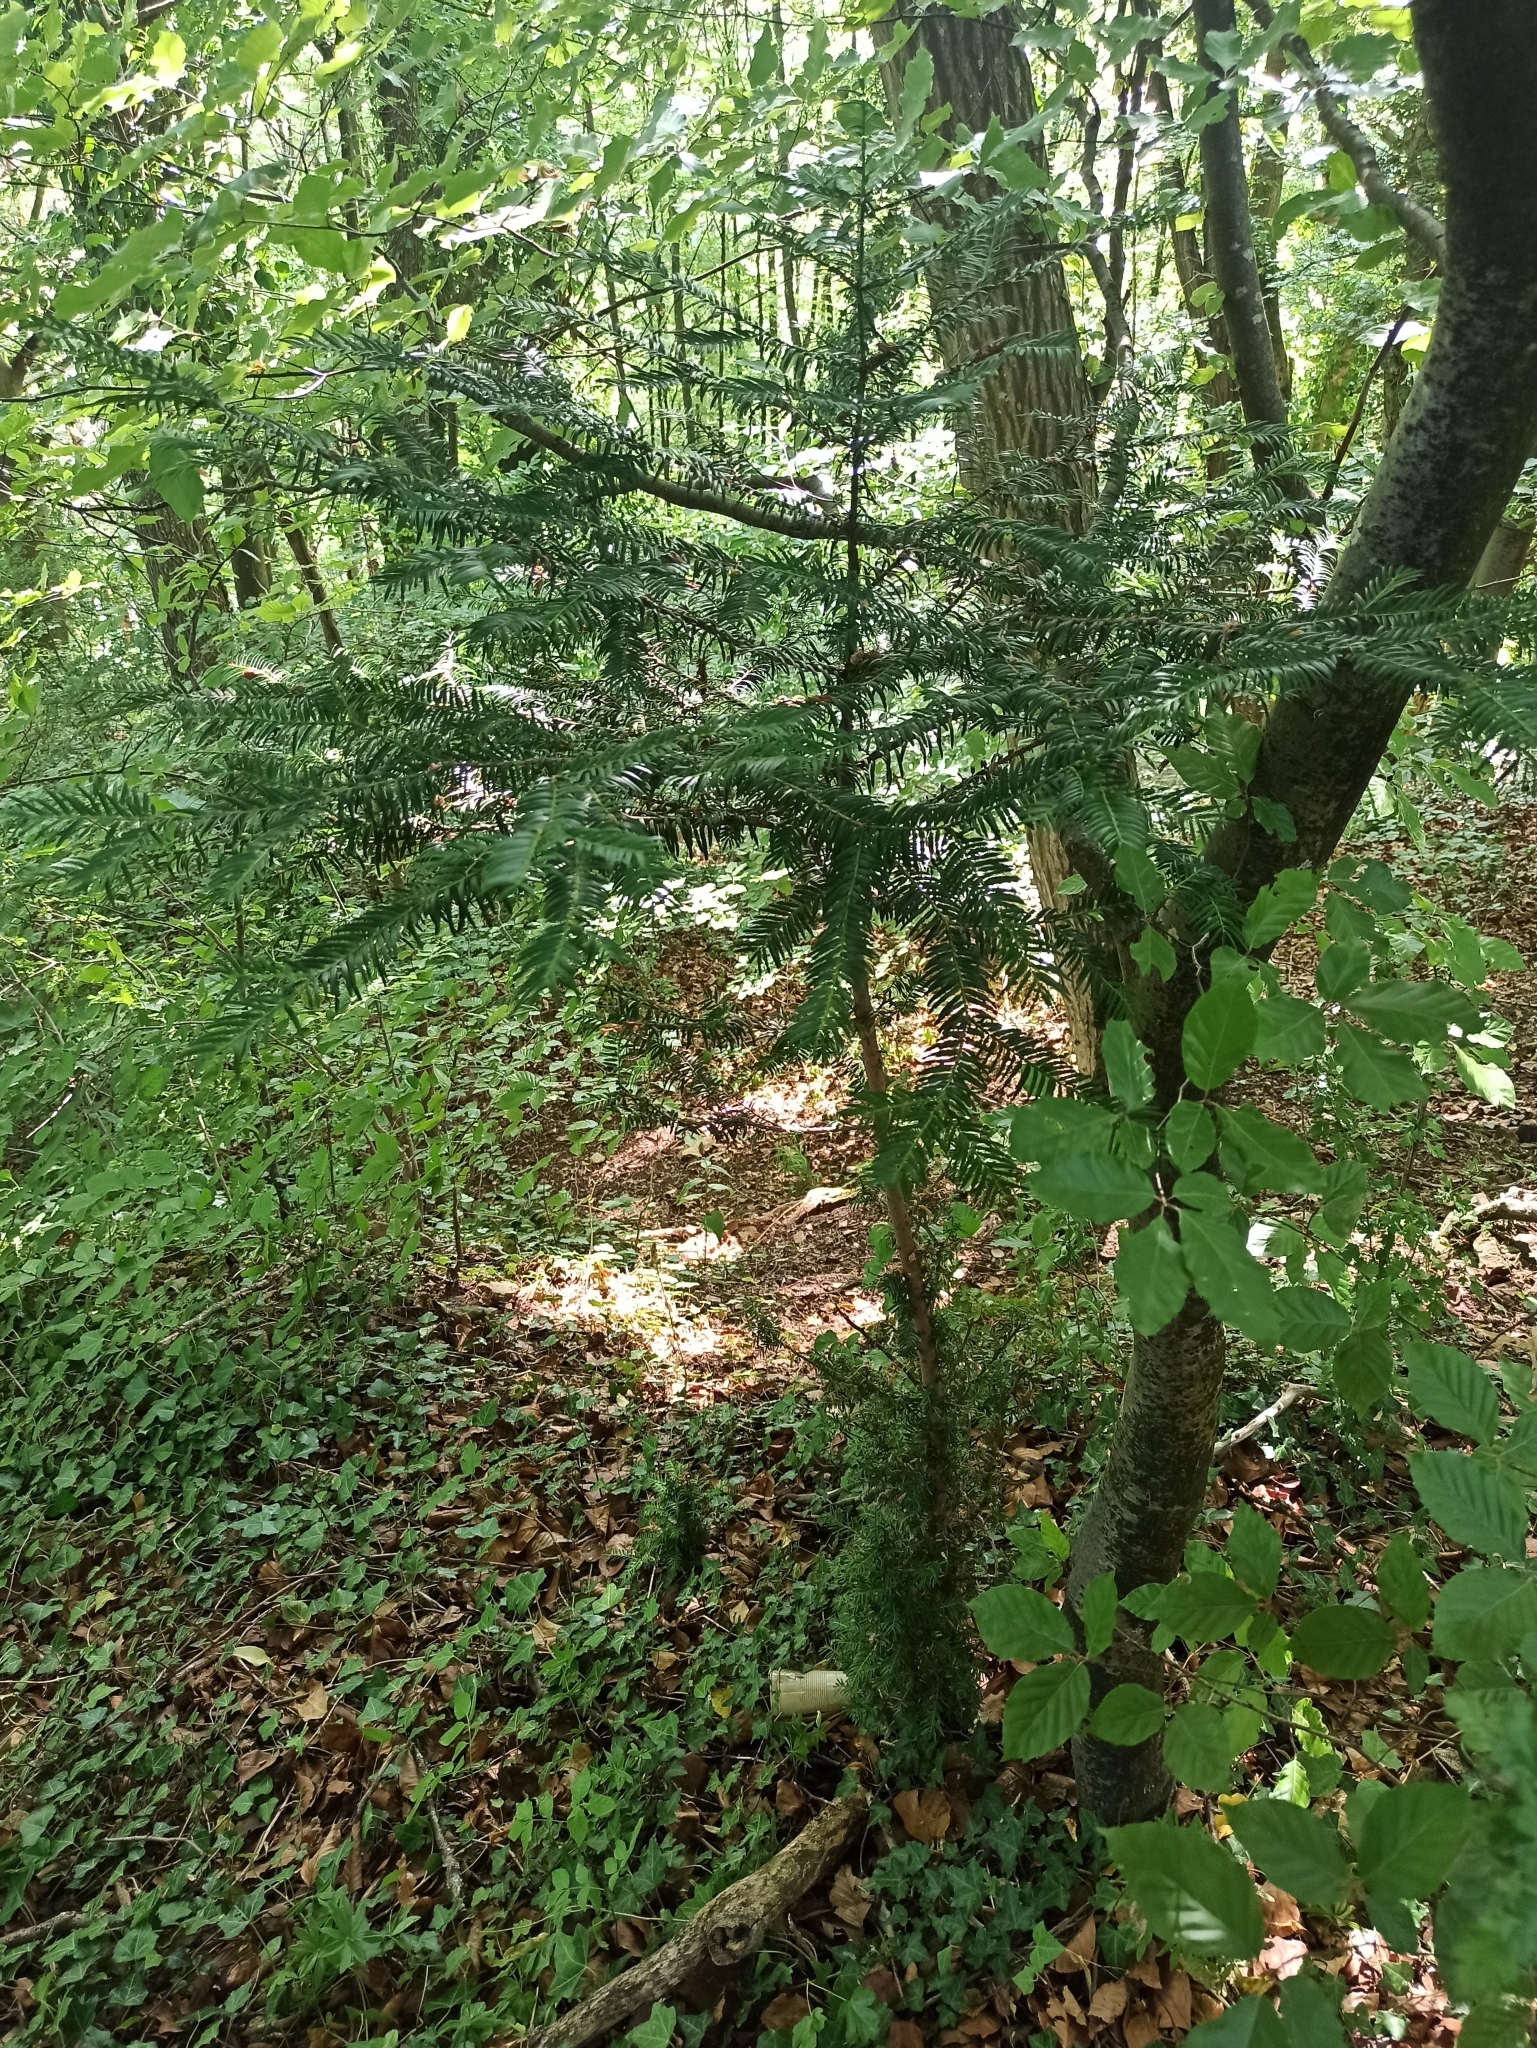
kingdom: Plantae
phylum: Tracheophyta
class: Pinopsida
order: Pinales
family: Taxaceae
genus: Taxus
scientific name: Taxus baccata
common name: Yew
